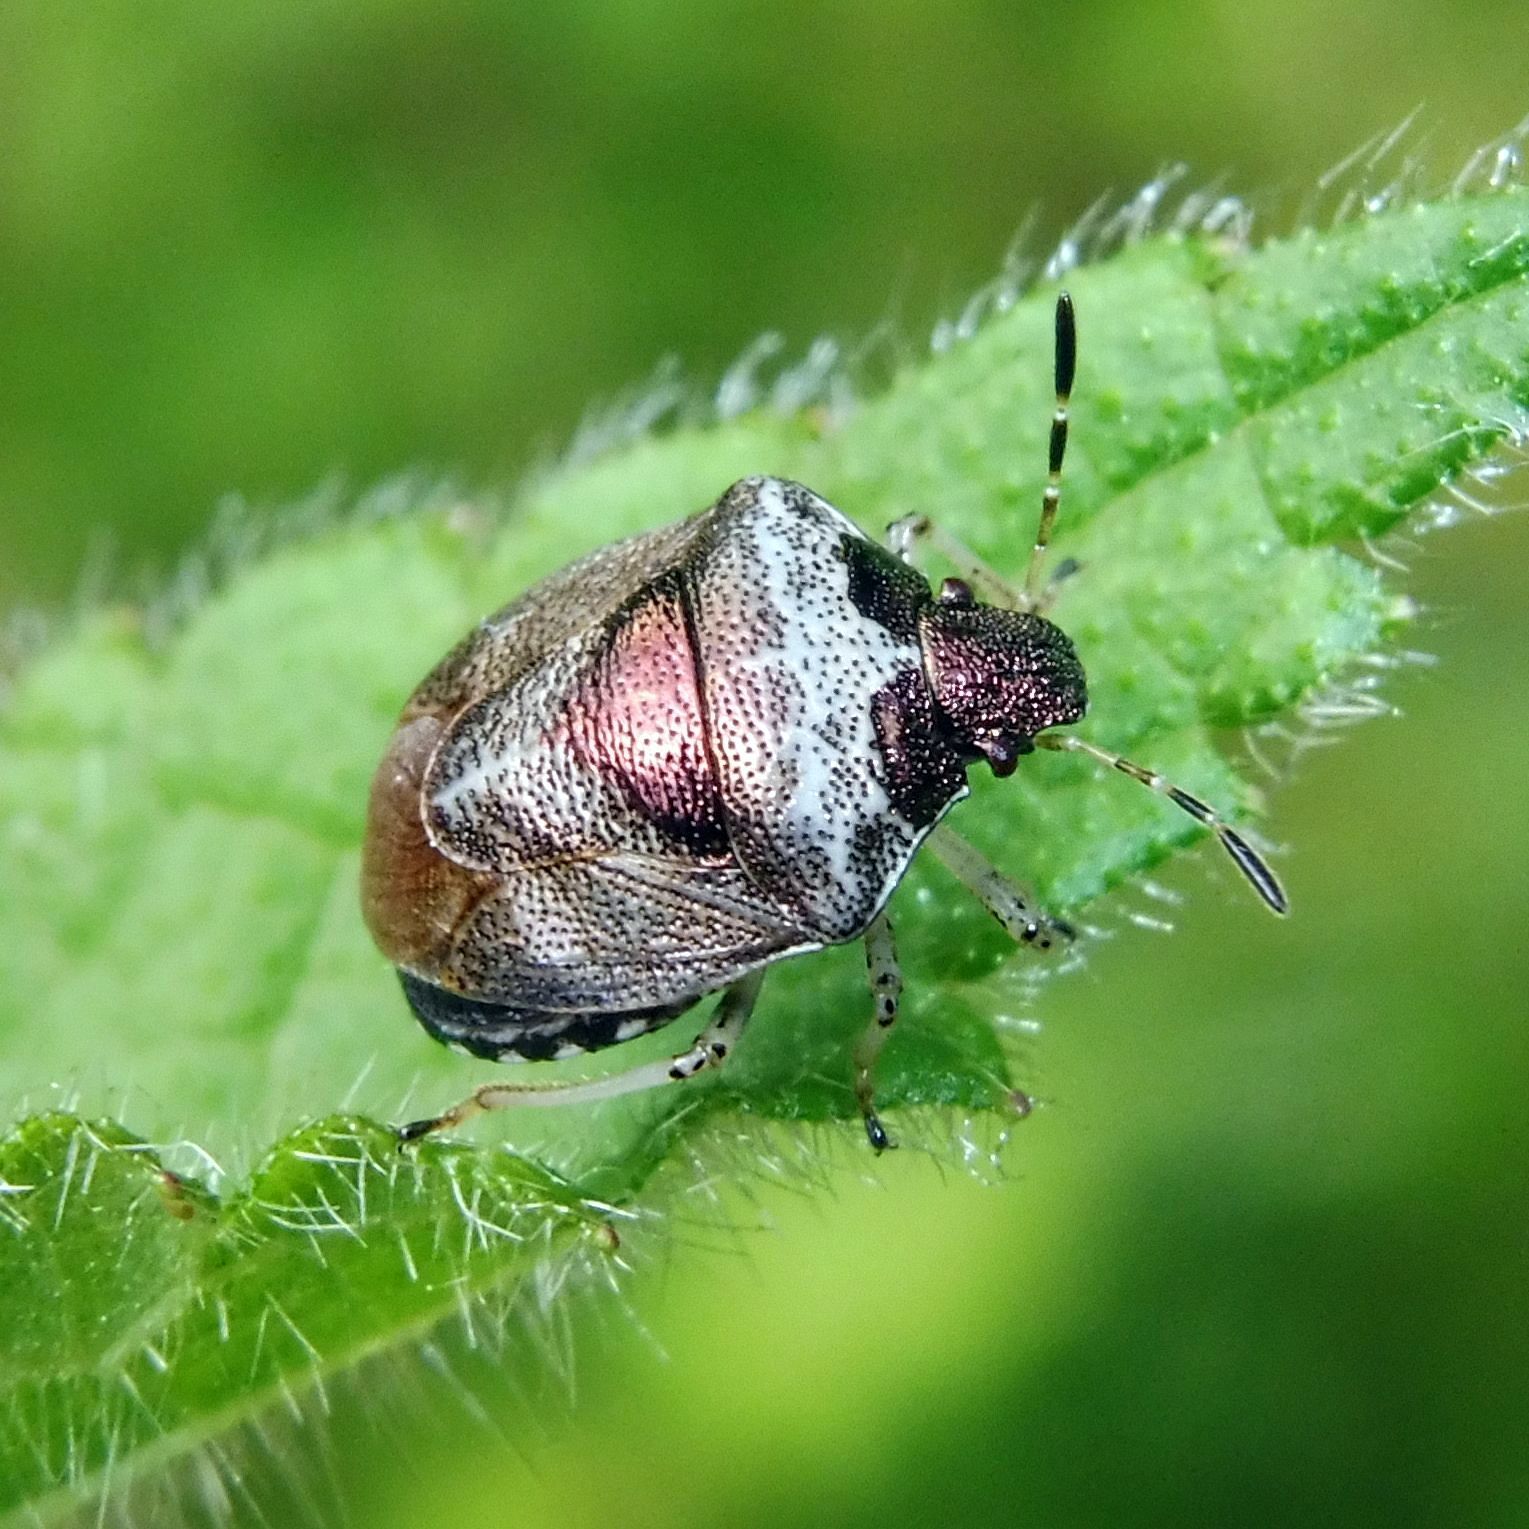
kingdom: Animalia
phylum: Arthropoda
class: Insecta
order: Hemiptera
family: Pentatomidae
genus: Eysarcoris
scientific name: Eysarcoris venustissimus
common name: Woundwort shieldbug
